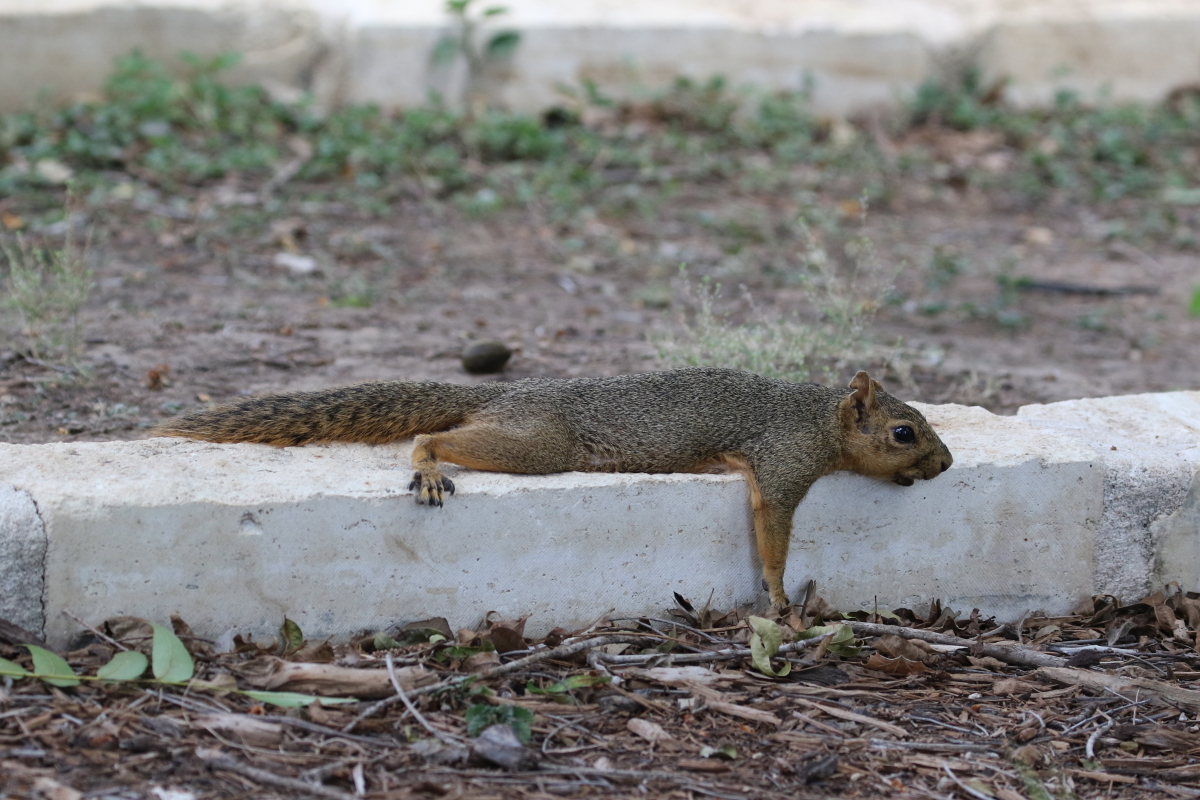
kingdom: Animalia
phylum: Chordata
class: Mammalia
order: Rodentia
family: Sciuridae
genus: Sciurus
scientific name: Sciurus niger
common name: Fox squirrel
